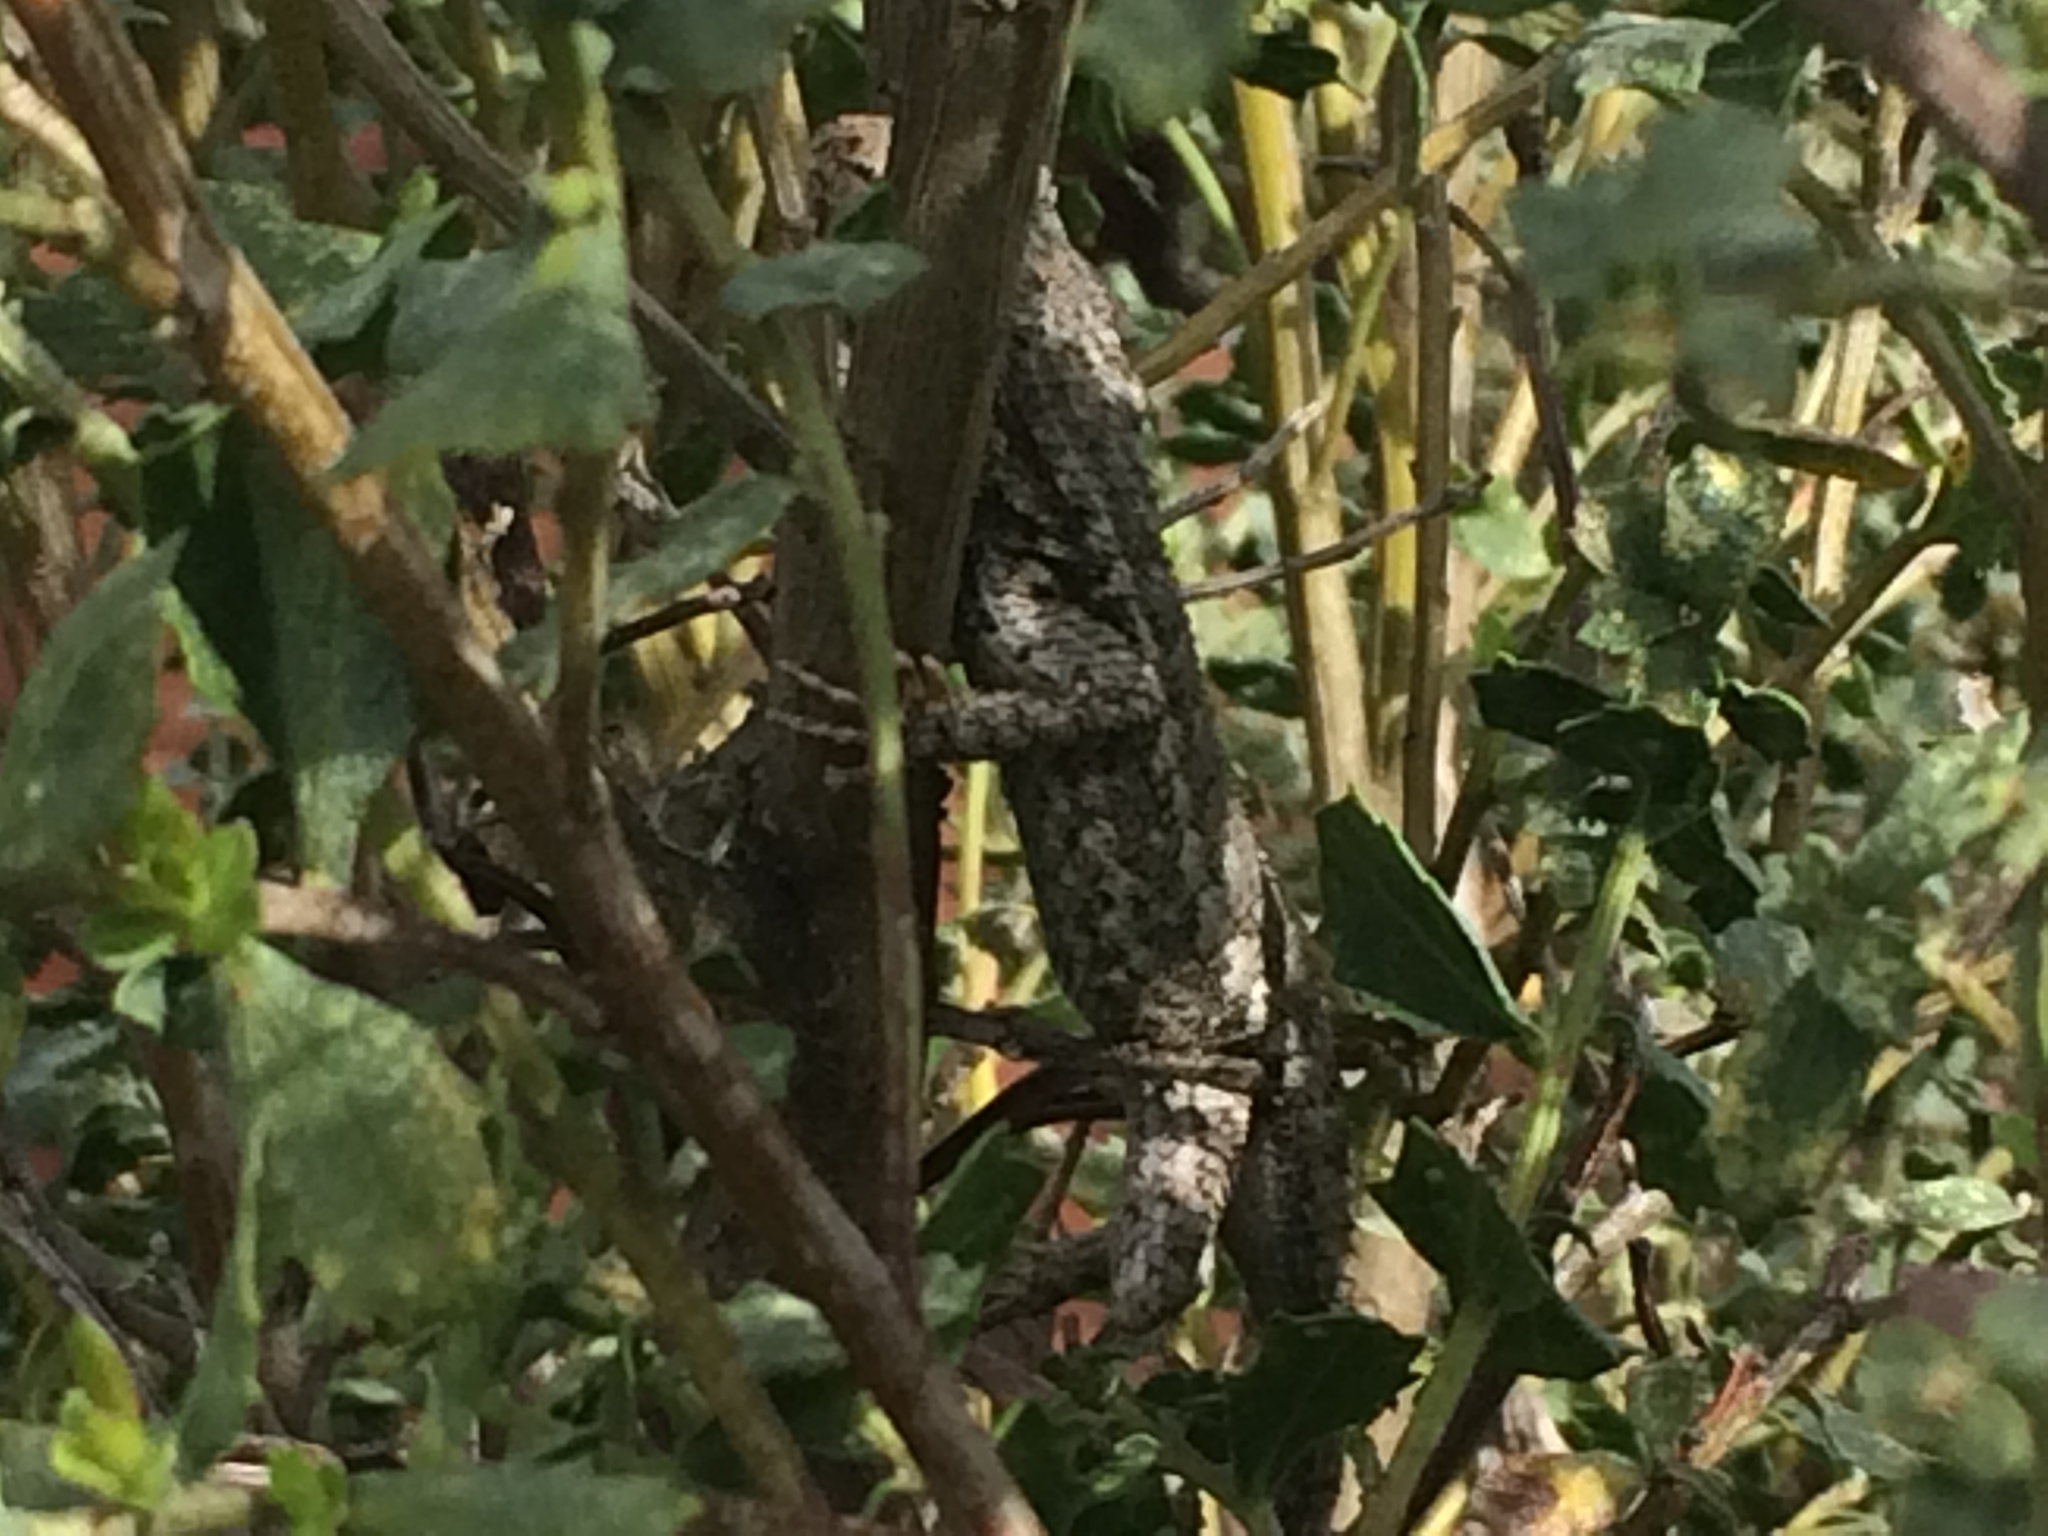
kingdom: Animalia
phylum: Chordata
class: Squamata
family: Phrynosomatidae
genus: Sceloporus
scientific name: Sceloporus occidentalis
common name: Western fence lizard
